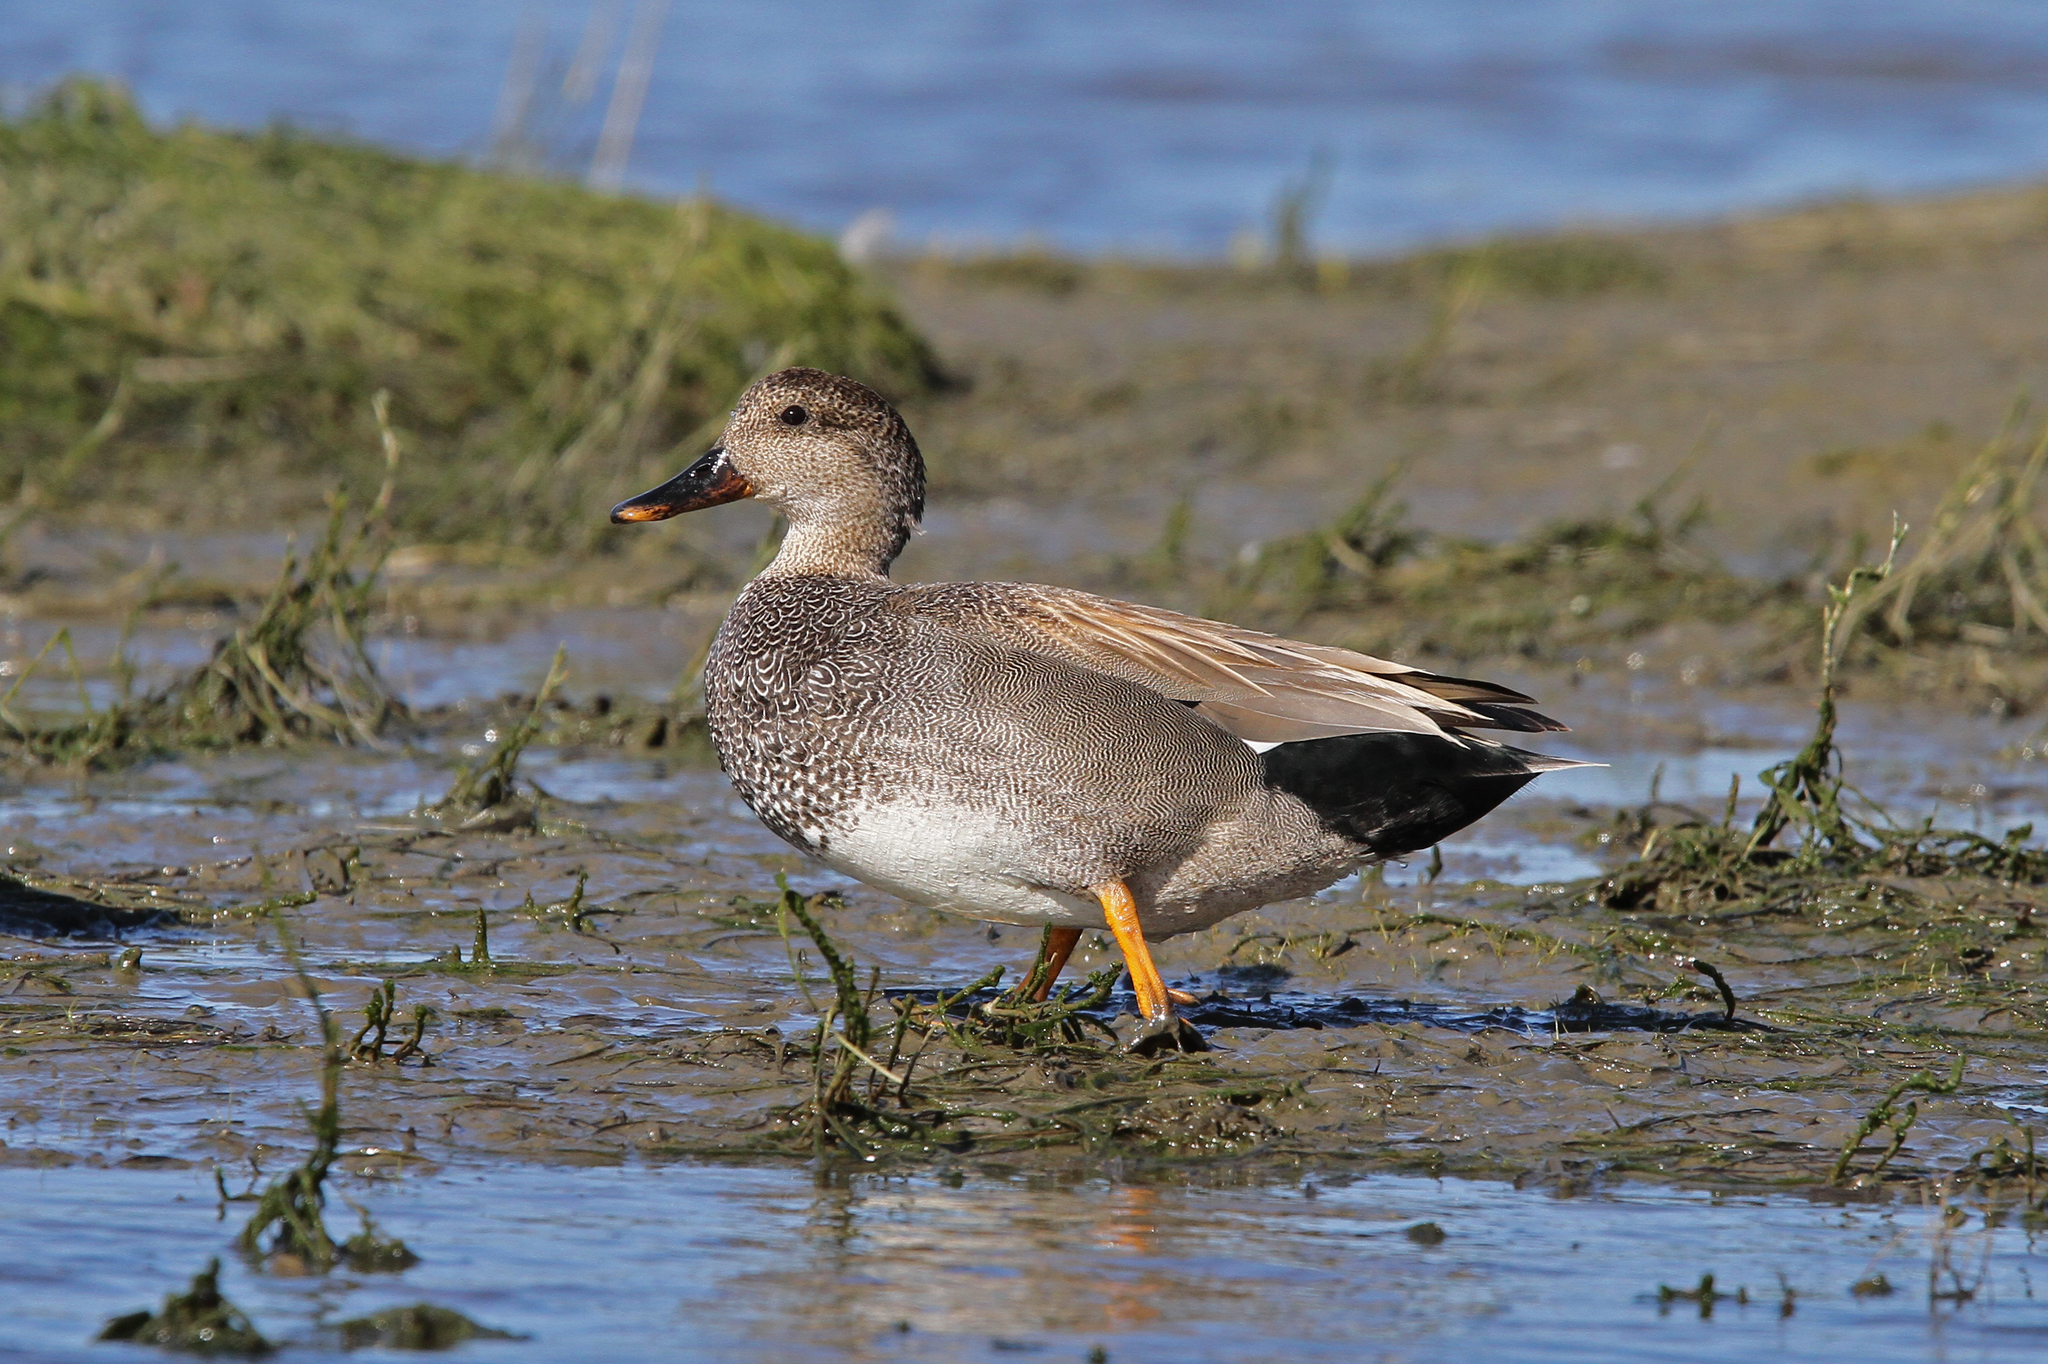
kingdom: Animalia
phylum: Chordata
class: Aves
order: Anseriformes
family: Anatidae
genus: Mareca
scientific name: Mareca strepera
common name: Gadwall
